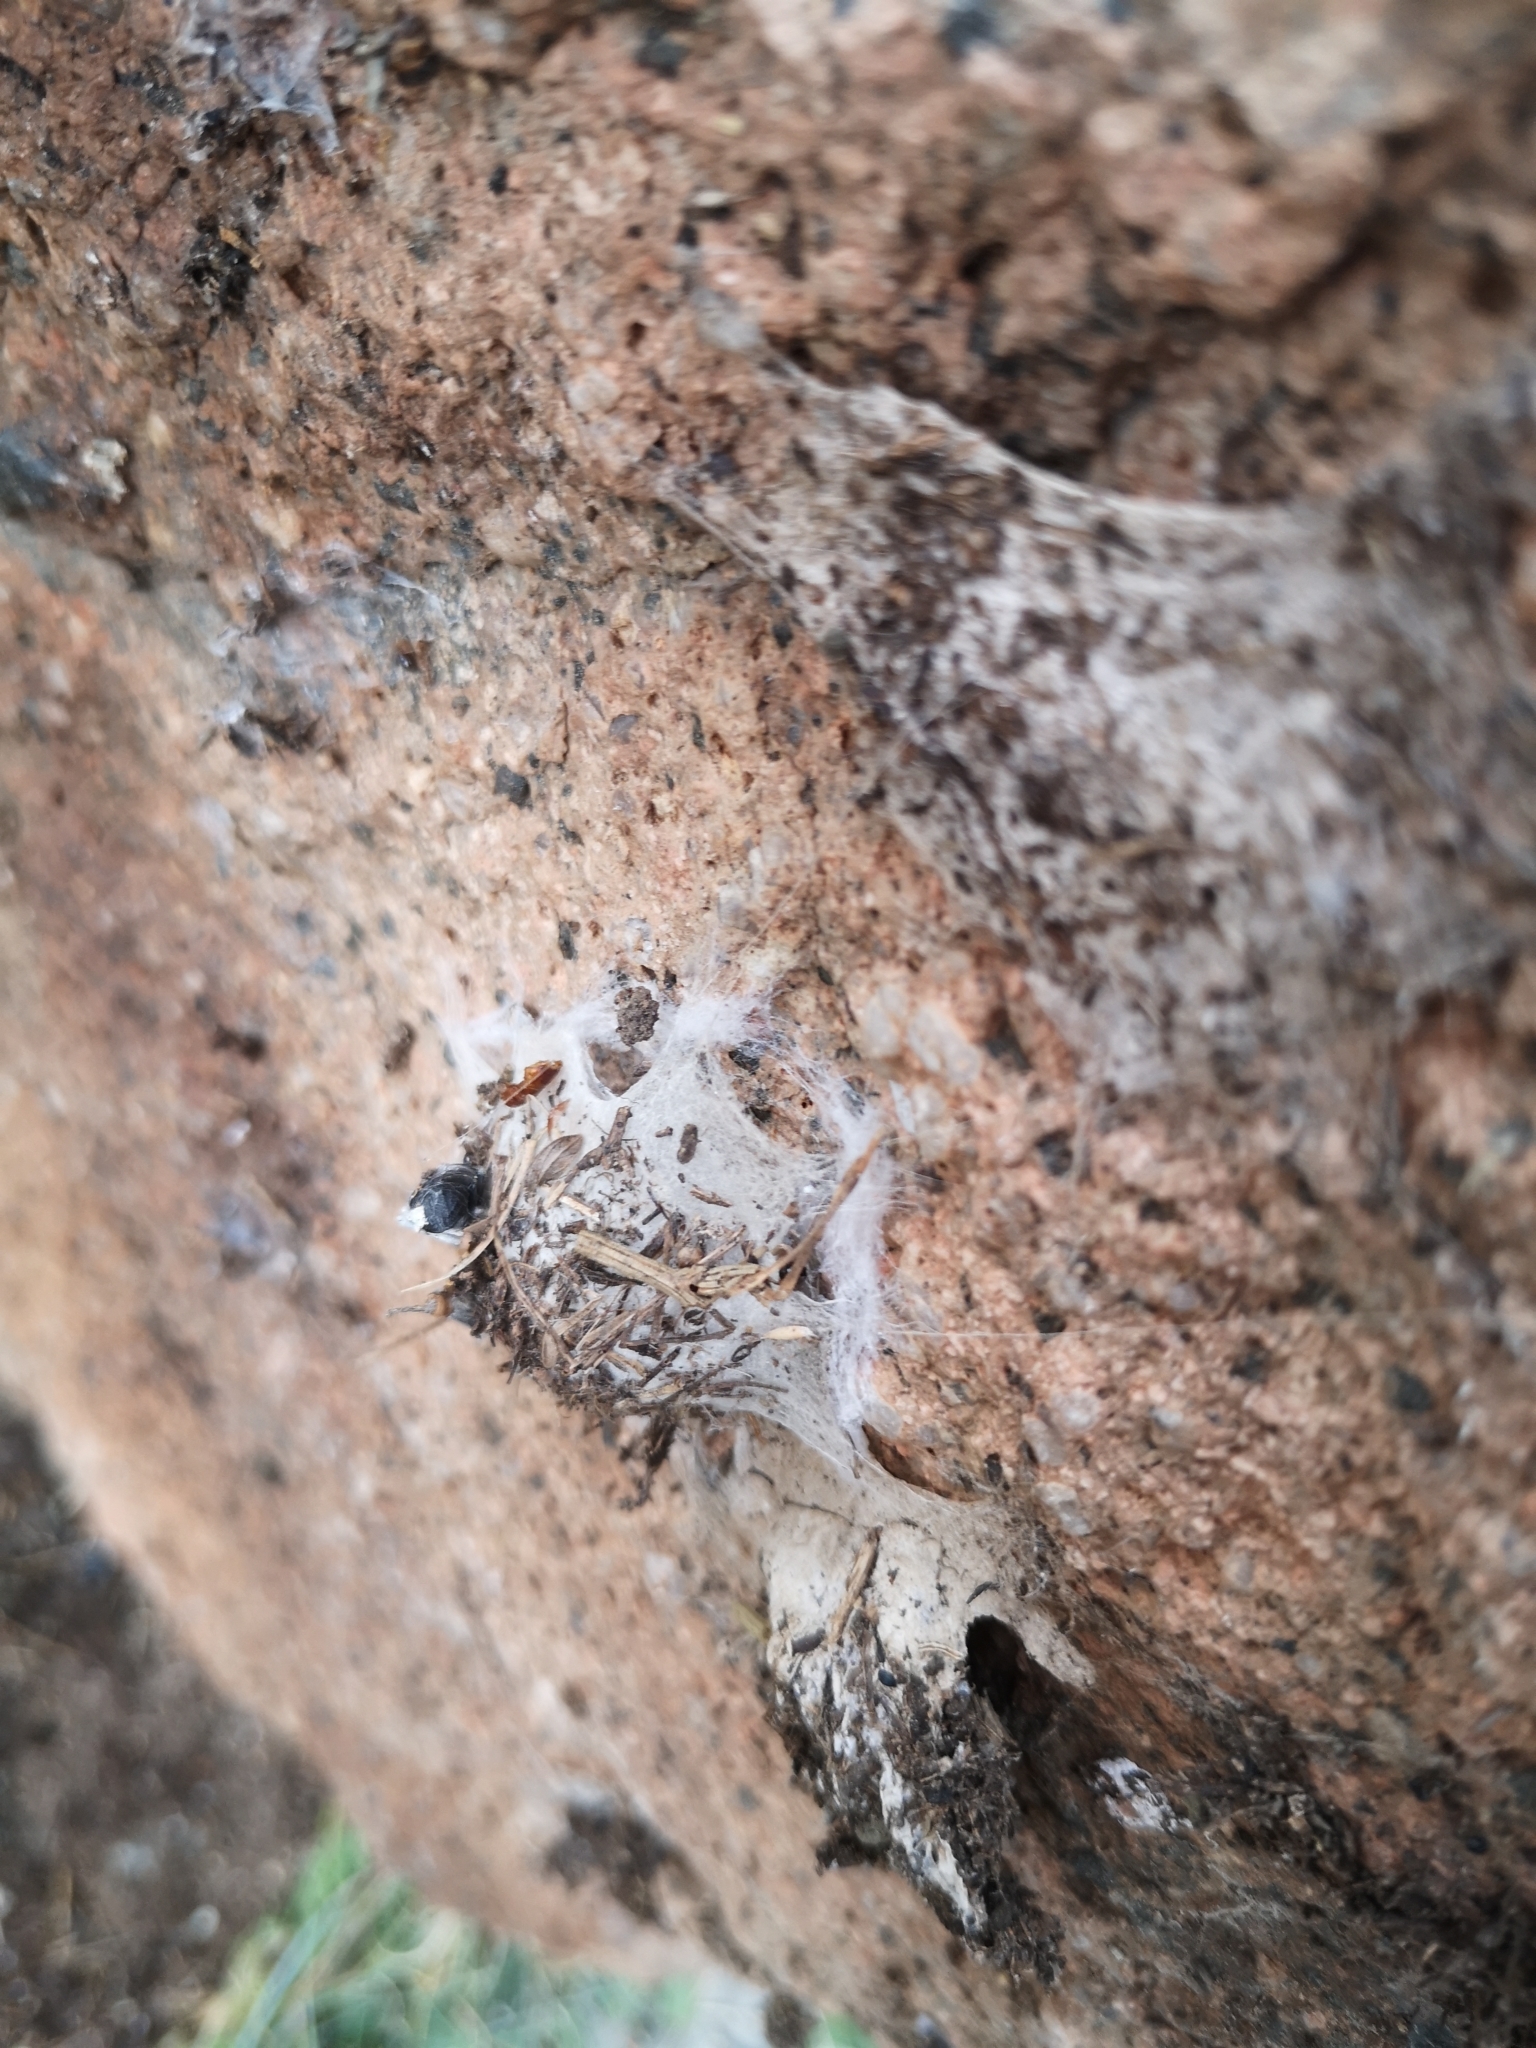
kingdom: Animalia
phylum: Arthropoda
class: Arachnida
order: Araneae
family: Oecobiidae
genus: Uroctea
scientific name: Uroctea durandi
